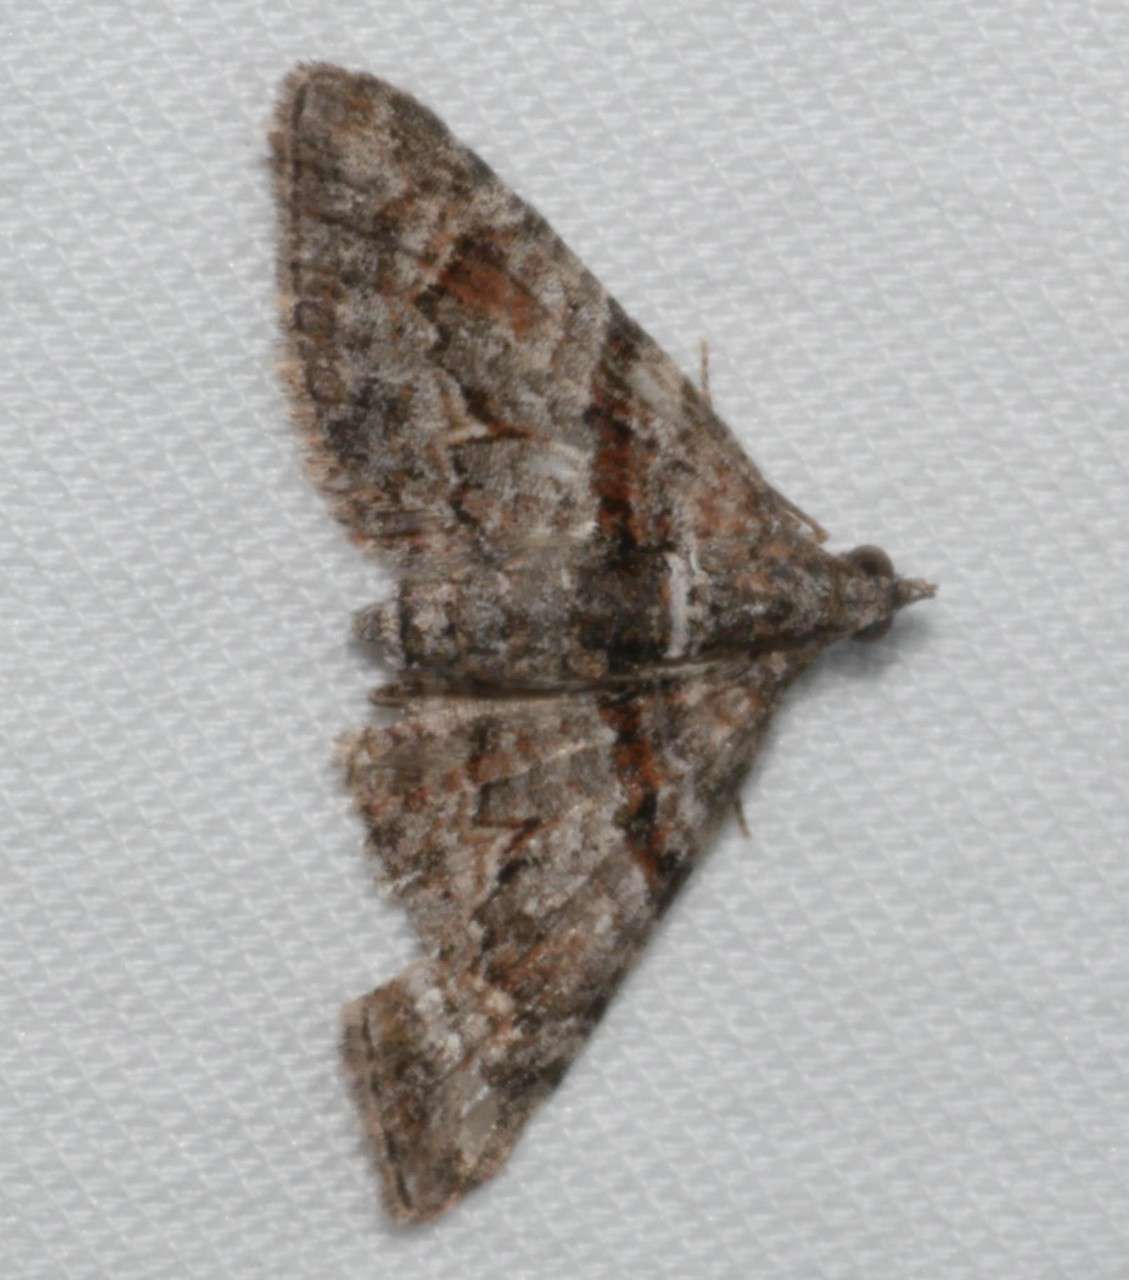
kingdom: Animalia
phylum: Arthropoda
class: Insecta
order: Lepidoptera
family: Geometridae
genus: Phrissogonus
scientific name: Phrissogonus laticostata
